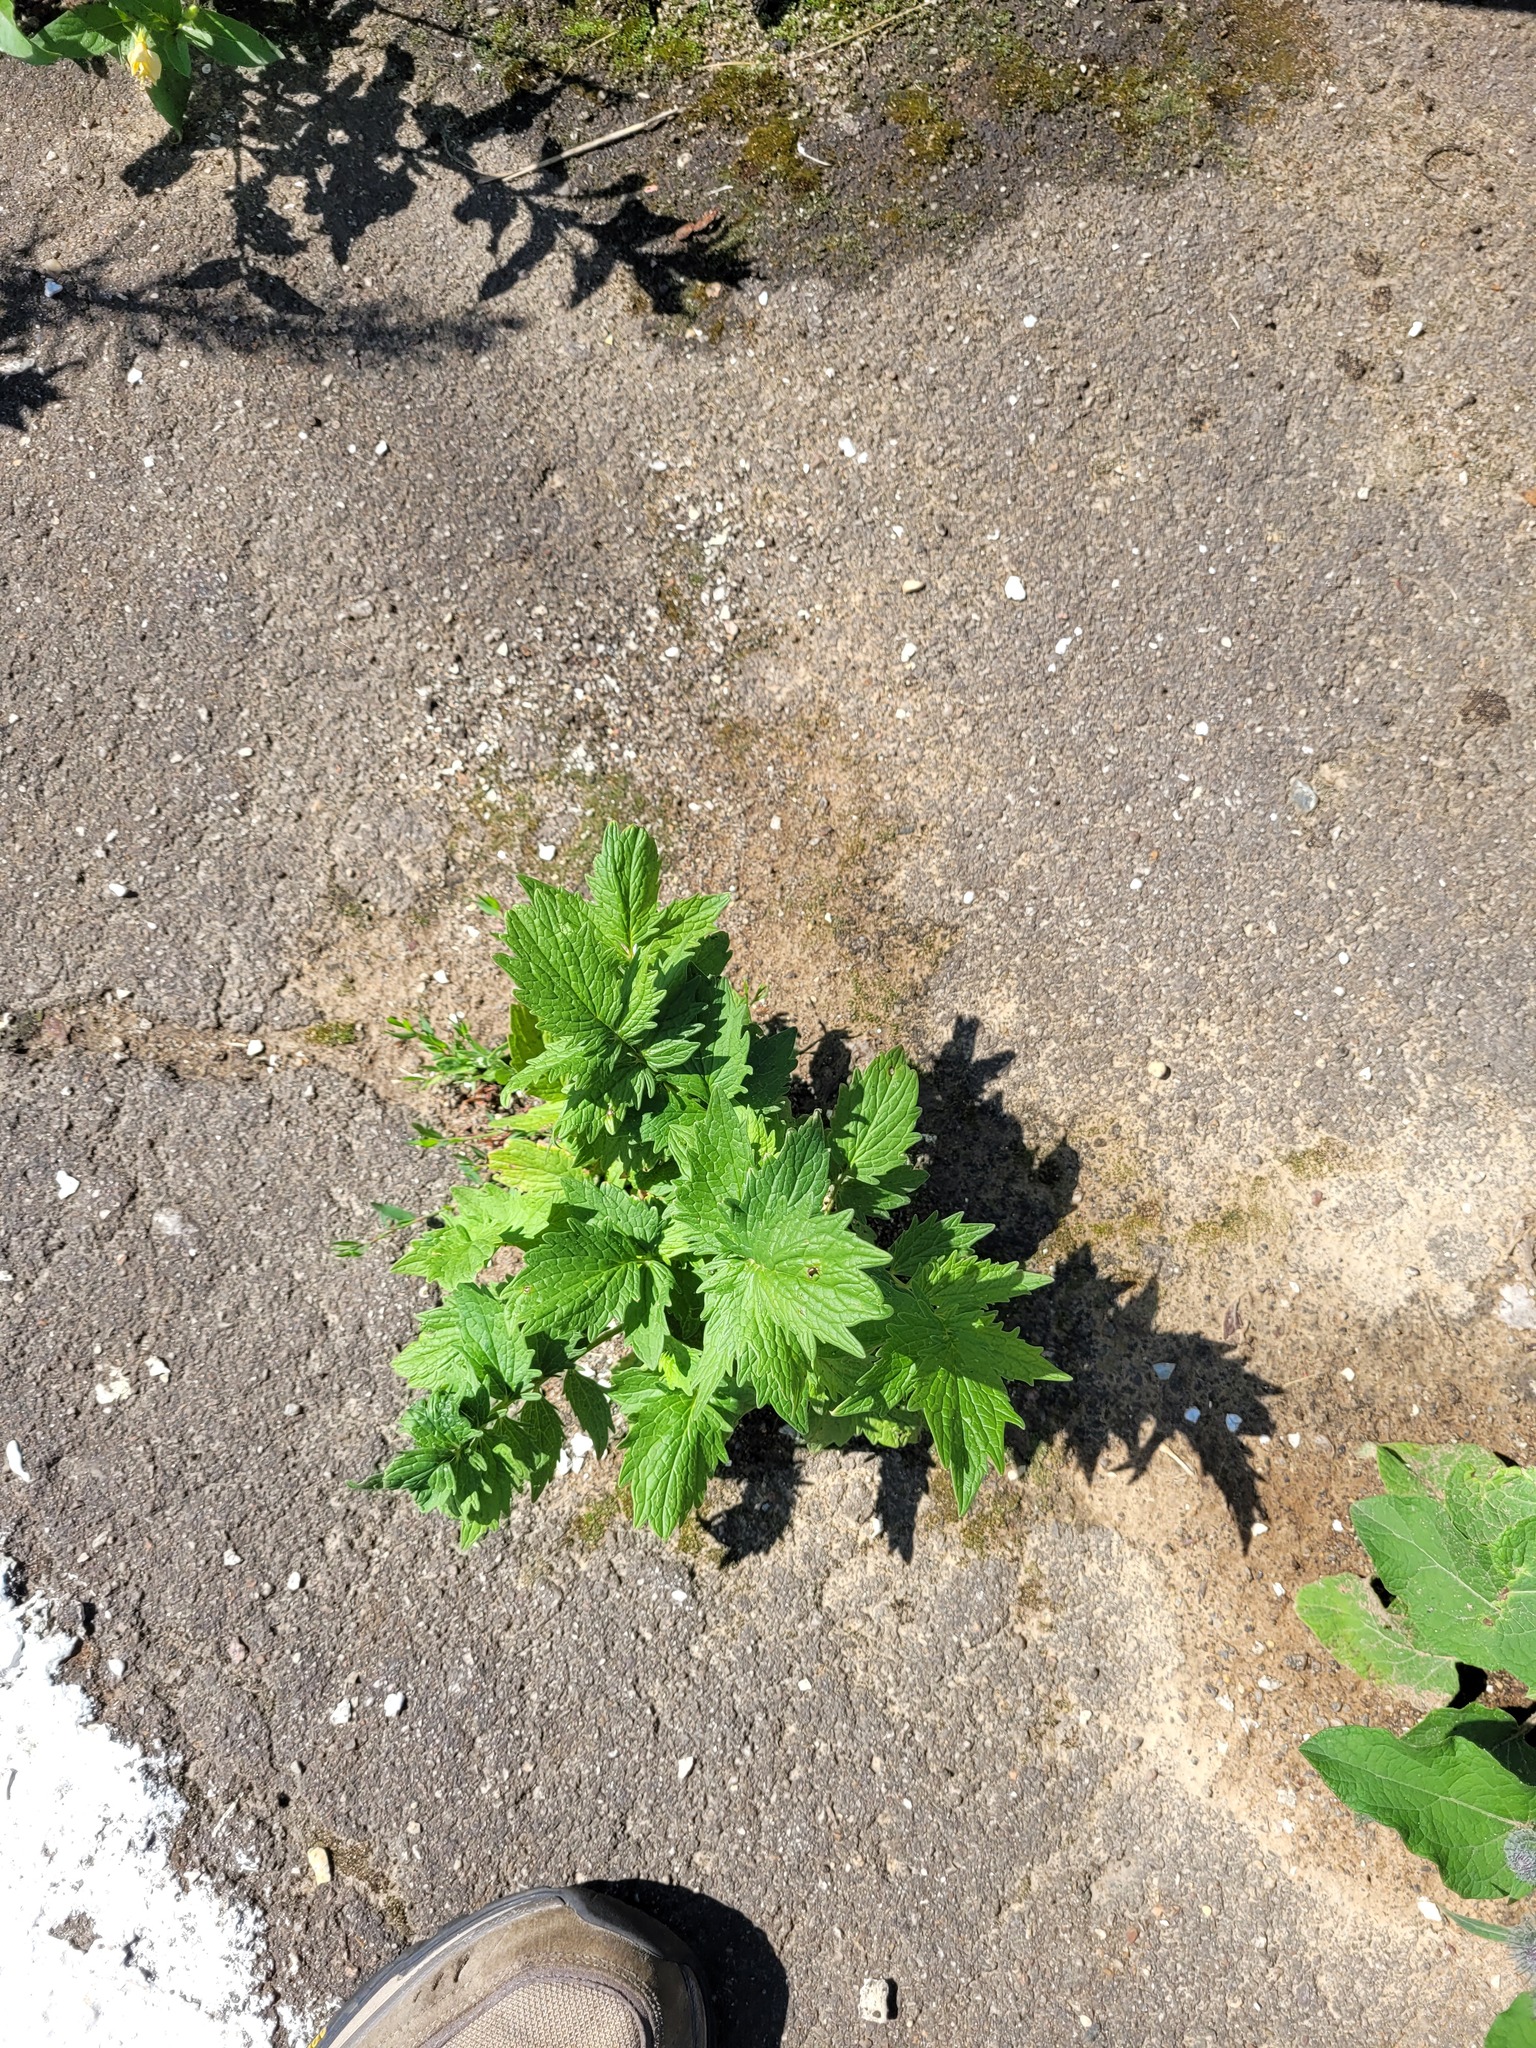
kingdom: Plantae
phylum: Tracheophyta
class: Magnoliopsida
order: Dipsacales
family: Caprifoliaceae
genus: Valeriana
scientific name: Valeriana officinalis
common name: Common valerian
